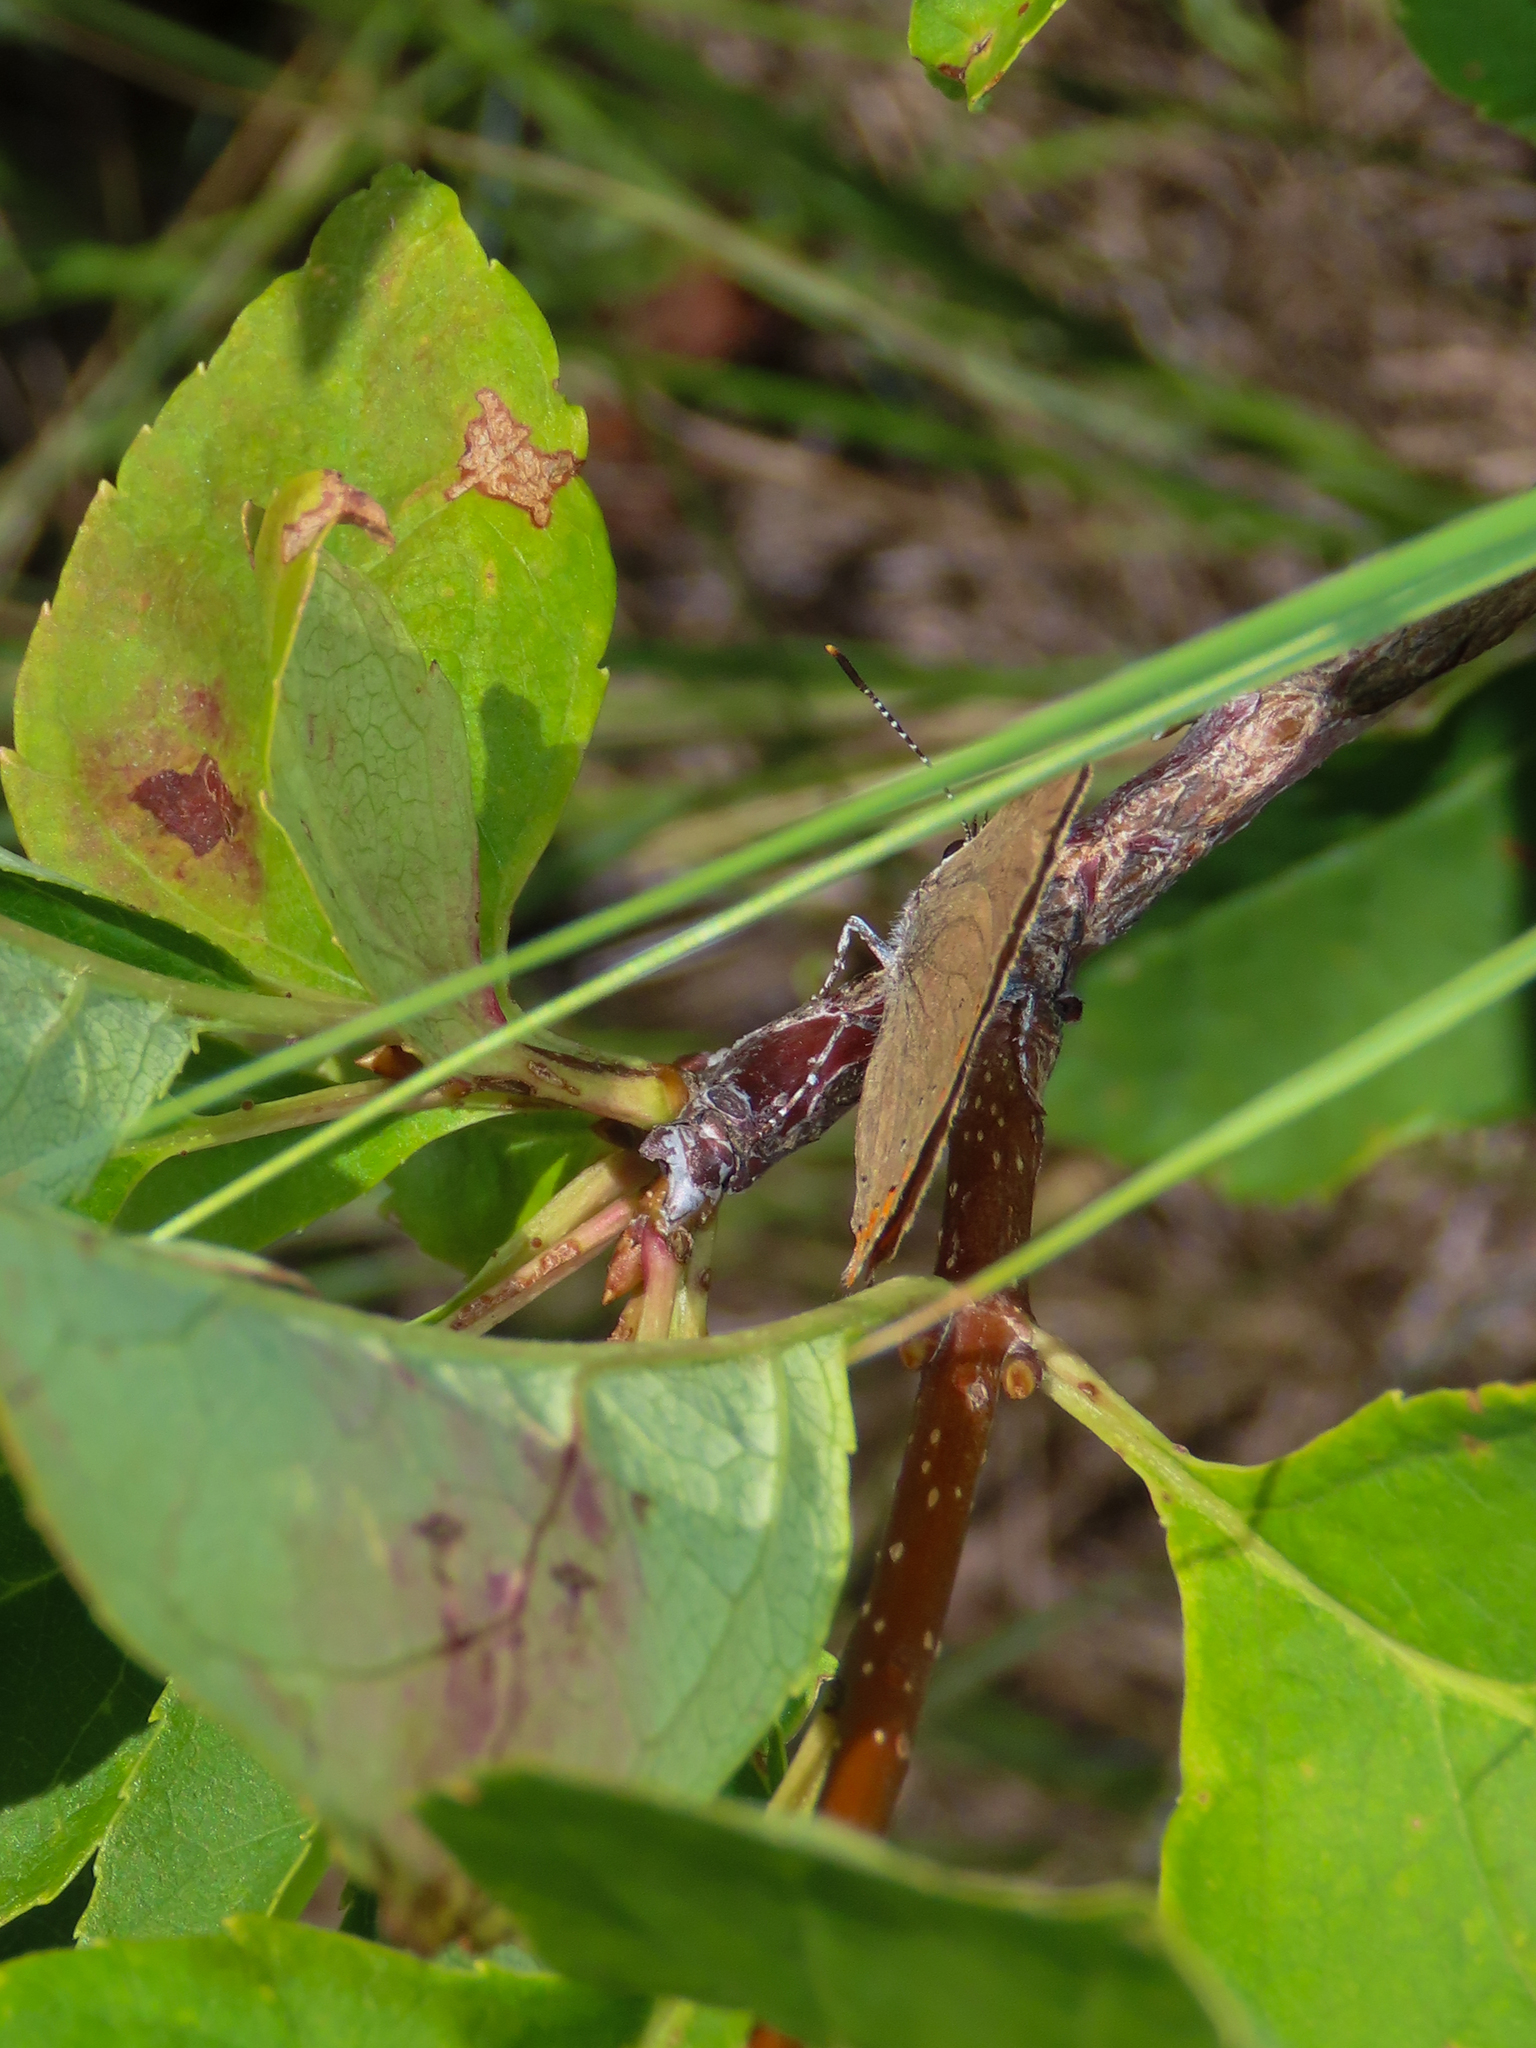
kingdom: Animalia
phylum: Arthropoda
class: Insecta
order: Lepidoptera
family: Lycaenidae
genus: Harkenclenus
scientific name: Harkenclenus titus
